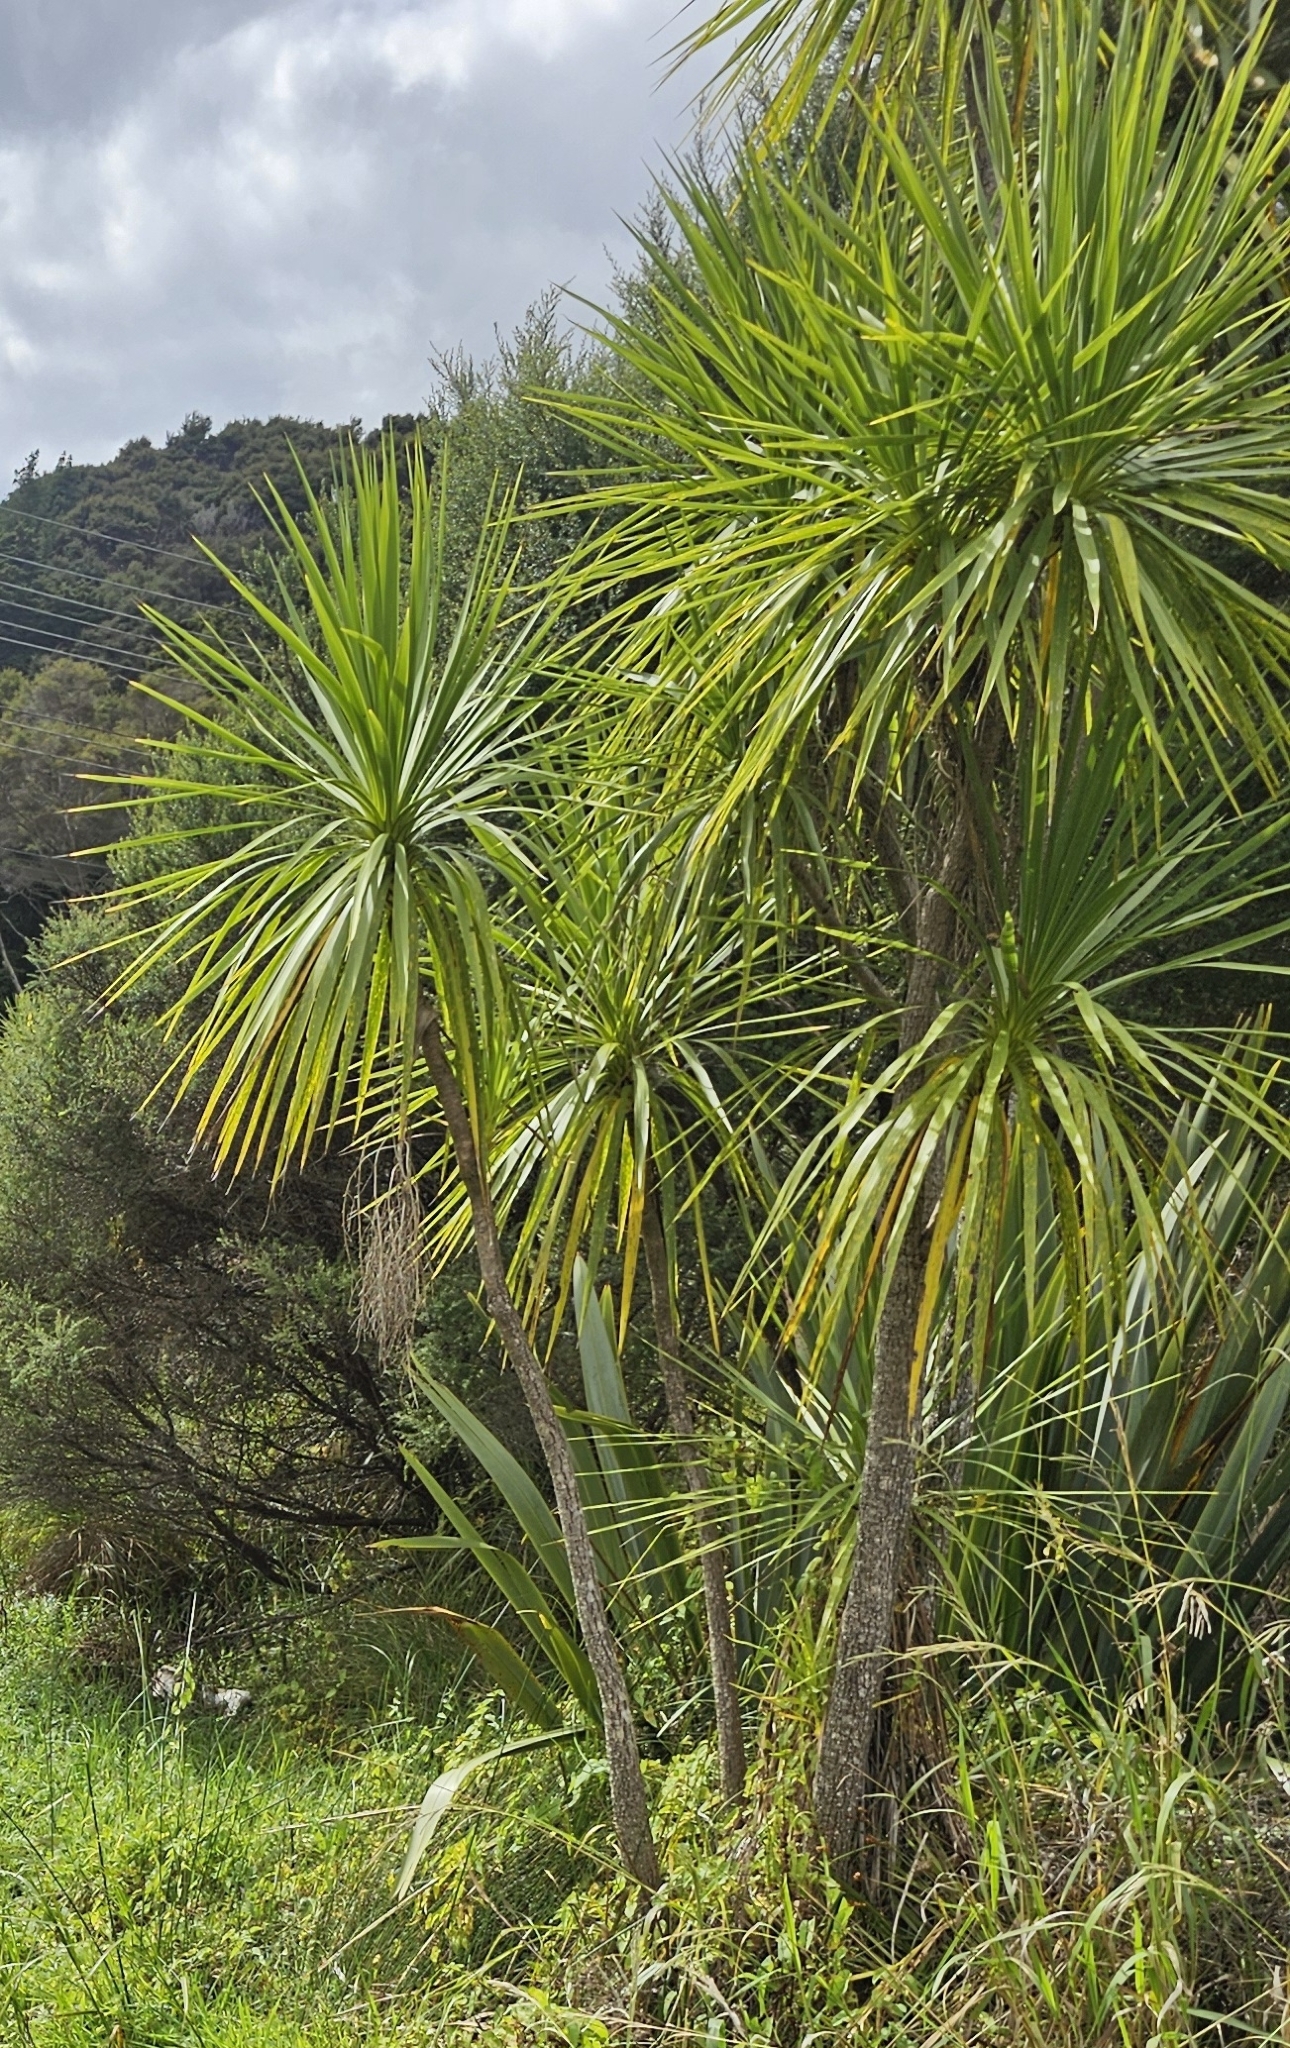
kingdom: Plantae
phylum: Tracheophyta
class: Liliopsida
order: Asparagales
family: Asparagaceae
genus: Cordyline
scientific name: Cordyline australis
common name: Cabbage-palm
